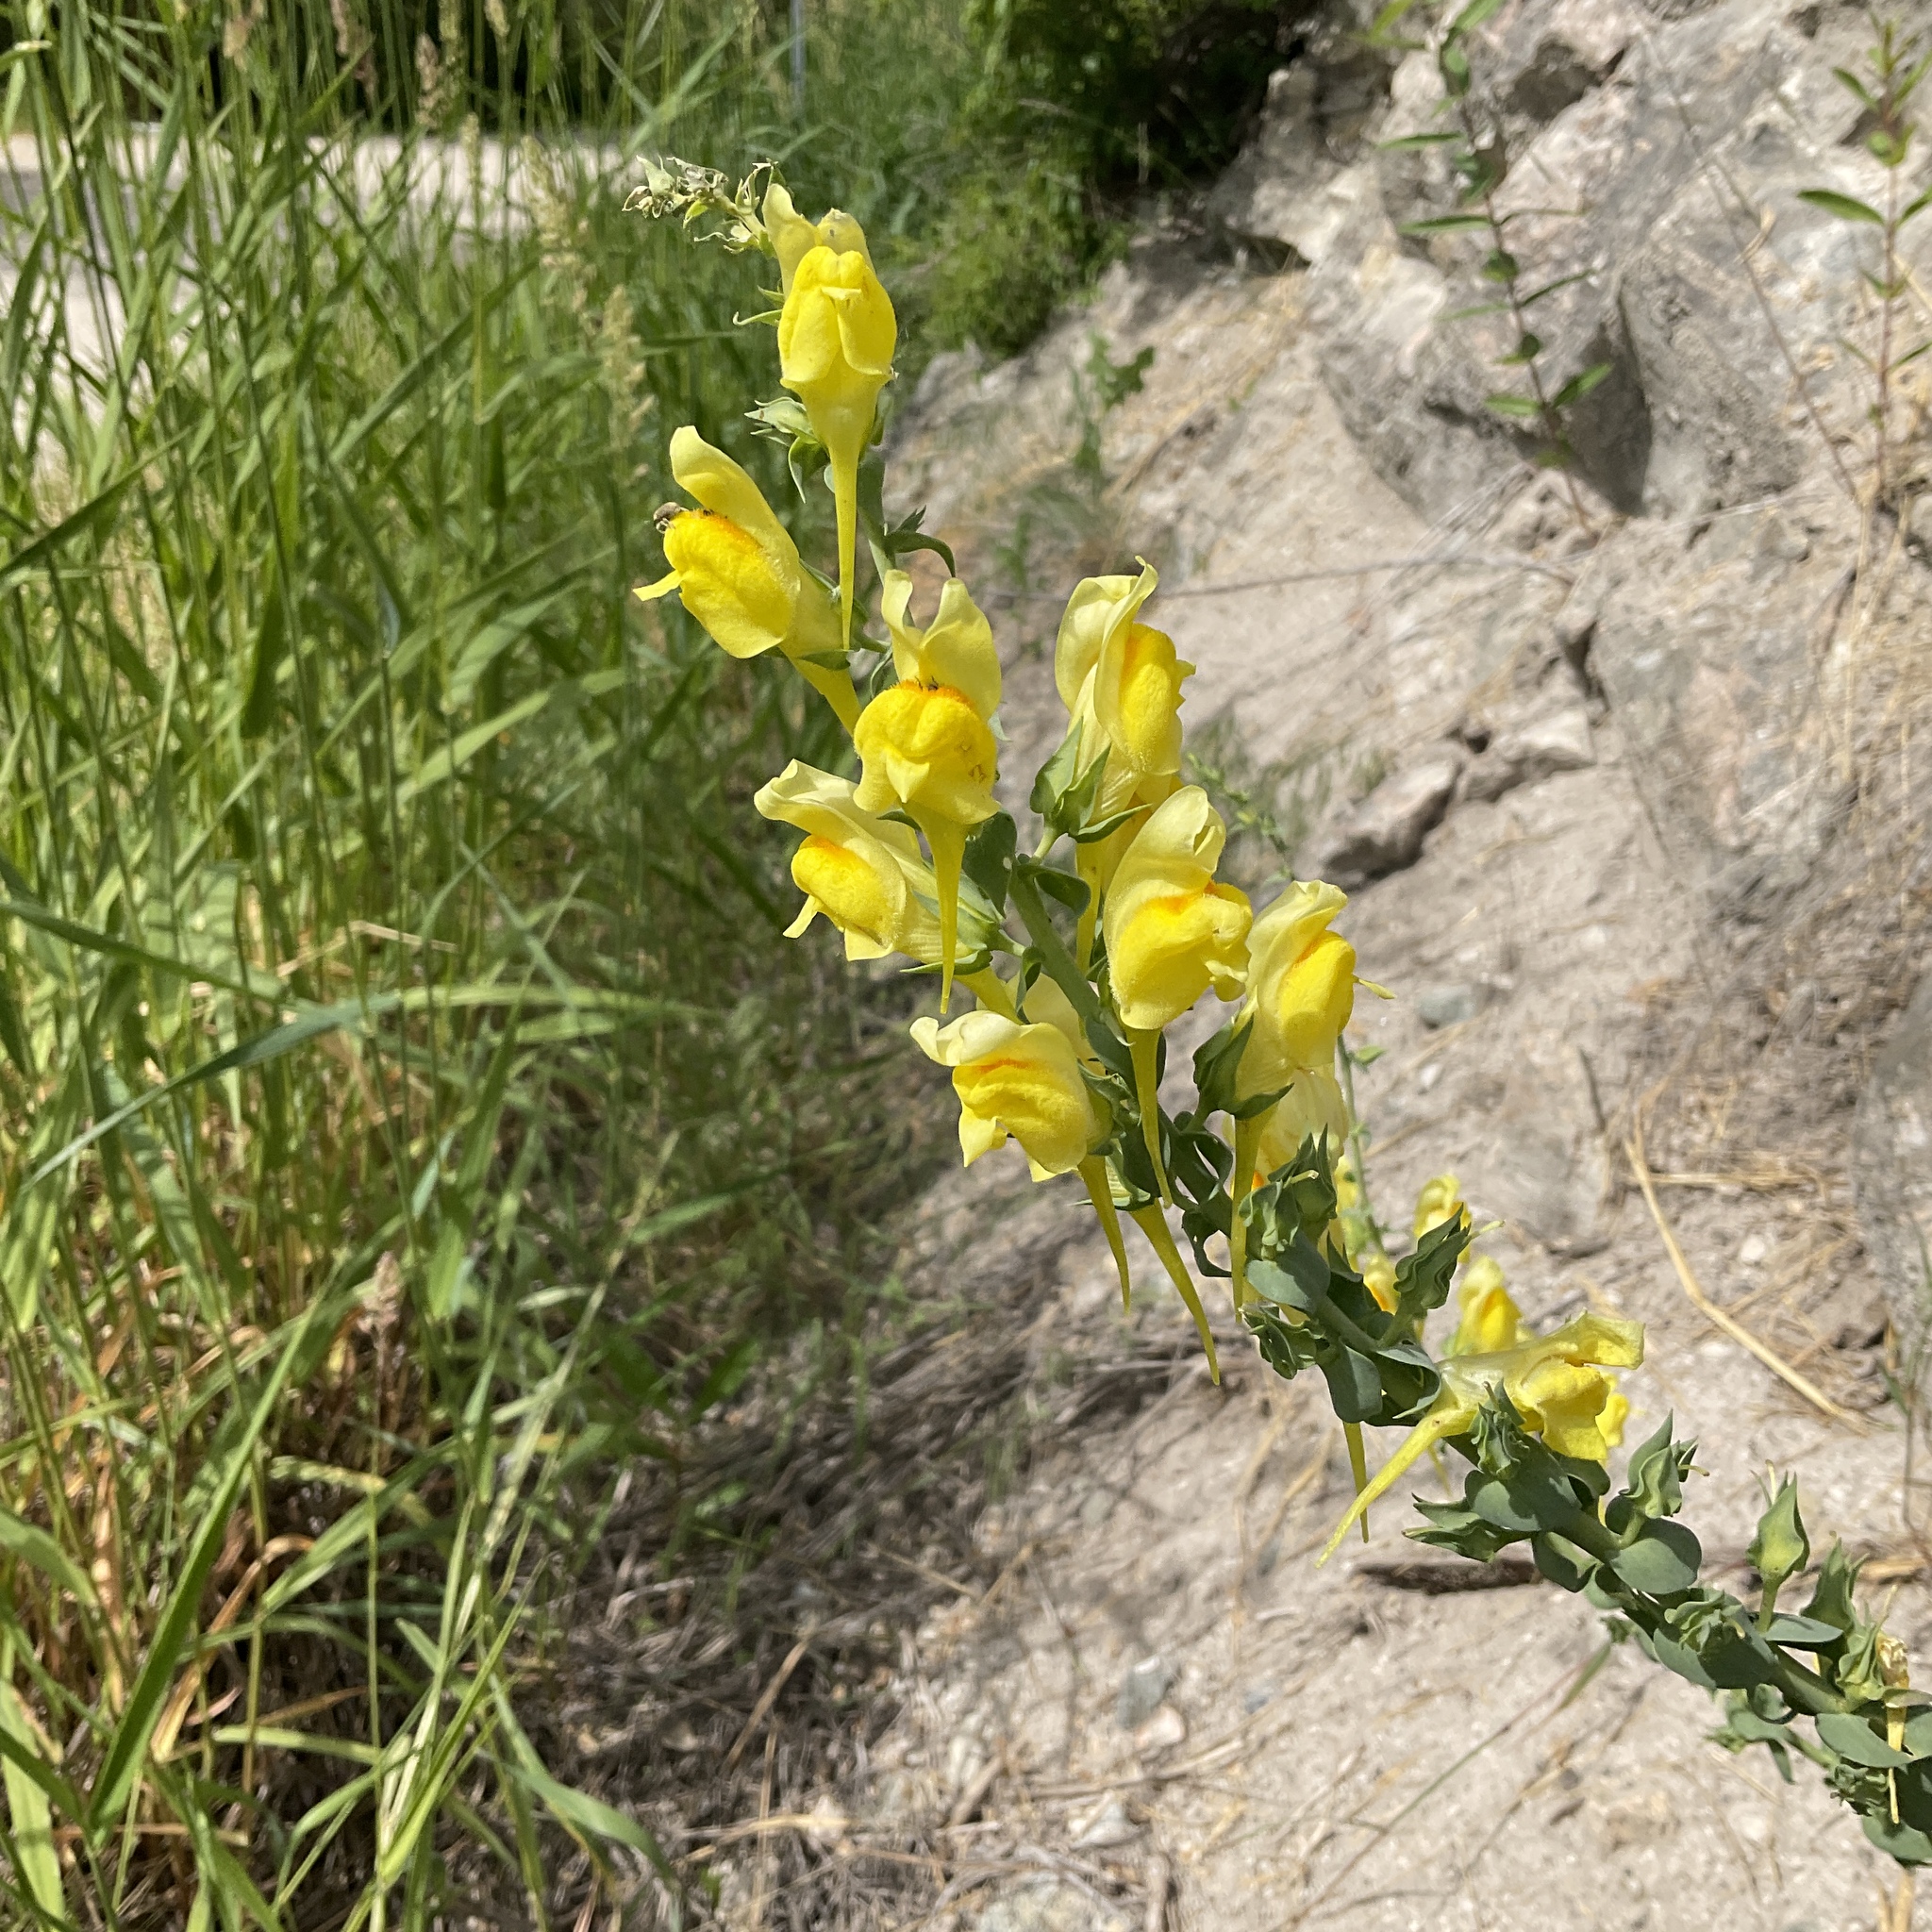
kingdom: Plantae
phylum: Tracheophyta
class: Magnoliopsida
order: Lamiales
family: Plantaginaceae
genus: Linaria
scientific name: Linaria dalmatica
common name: Dalmatian toadflax
